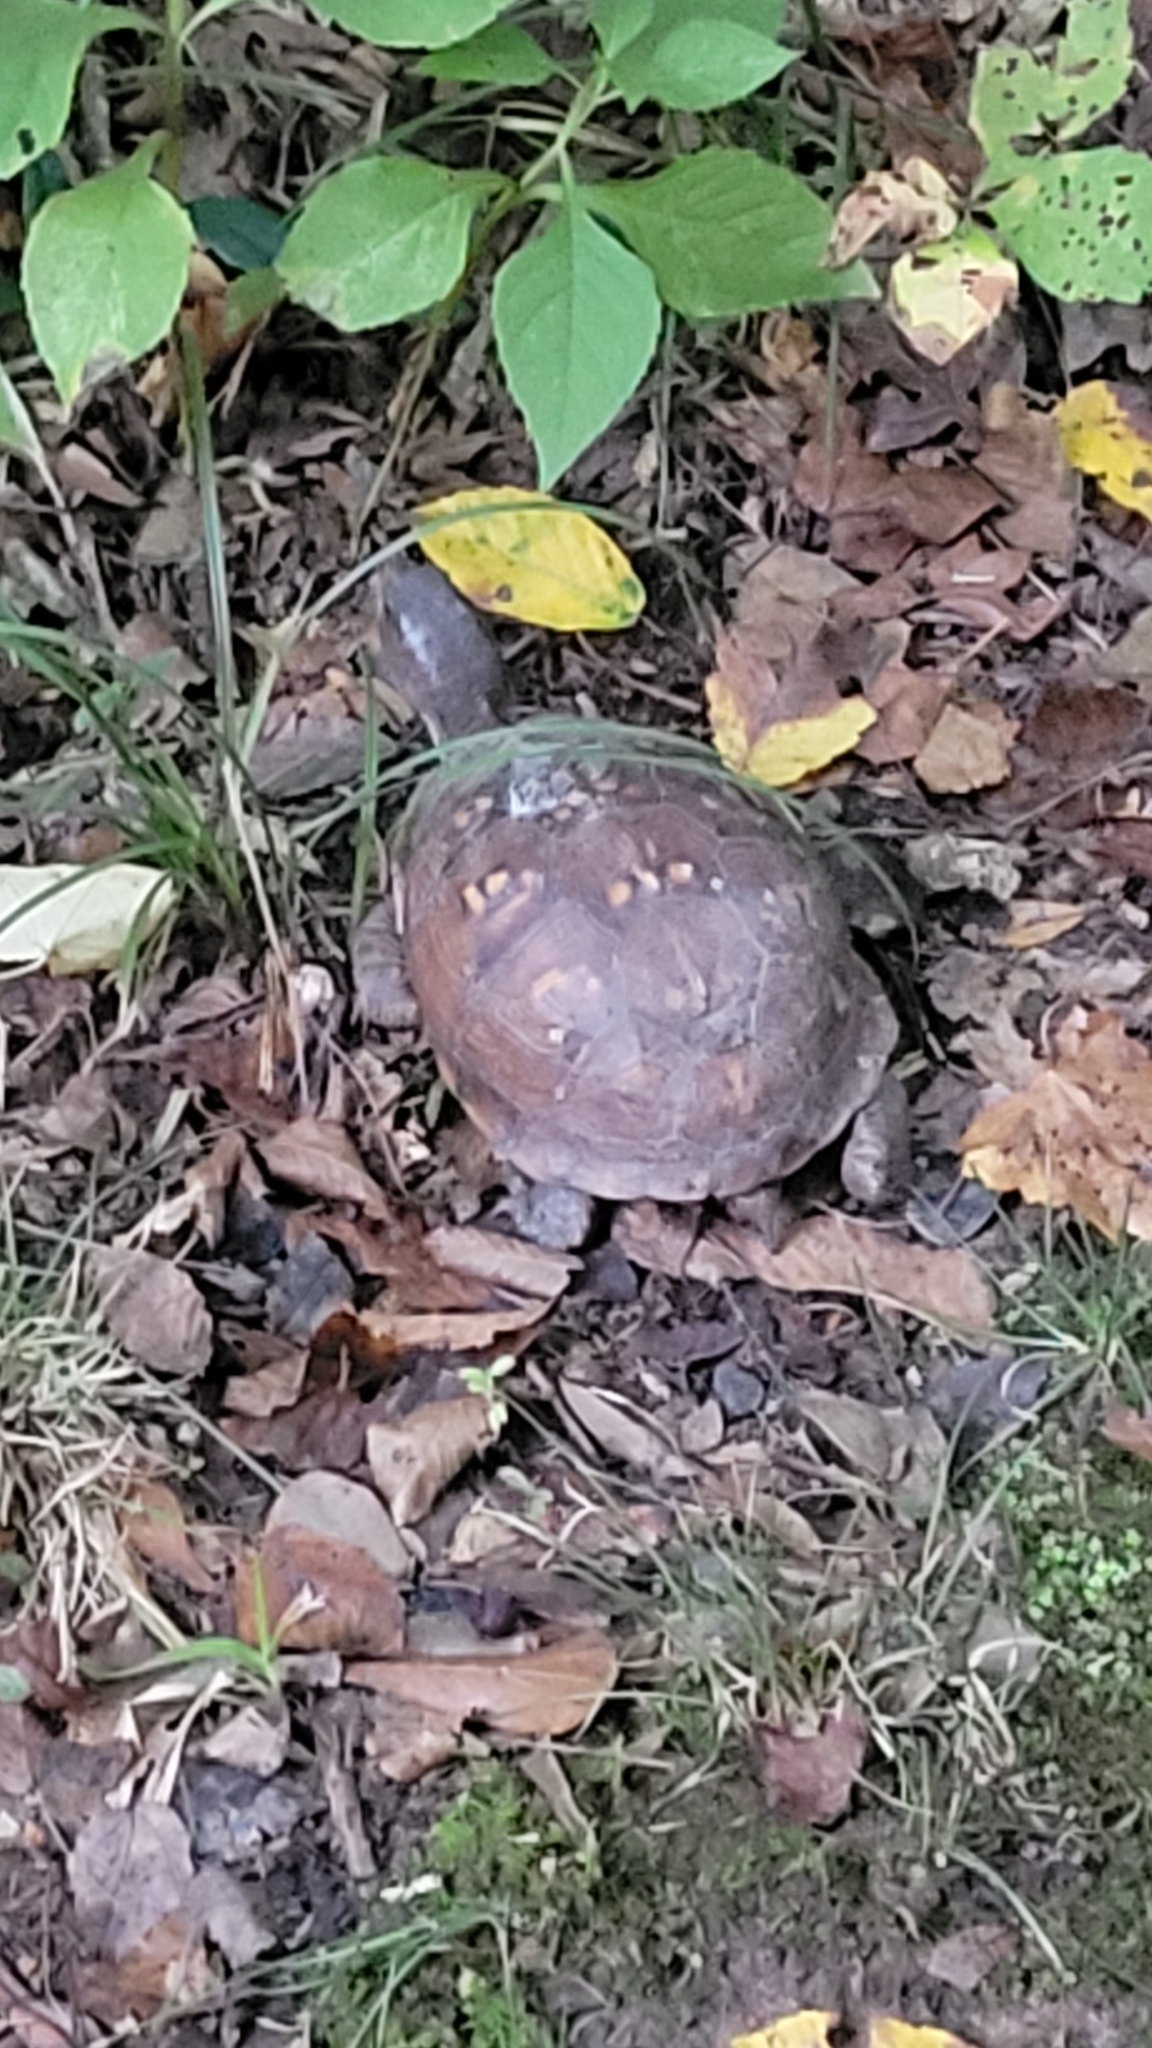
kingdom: Animalia
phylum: Chordata
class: Testudines
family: Emydidae
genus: Terrapene
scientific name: Terrapene carolina
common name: Common box turtle
